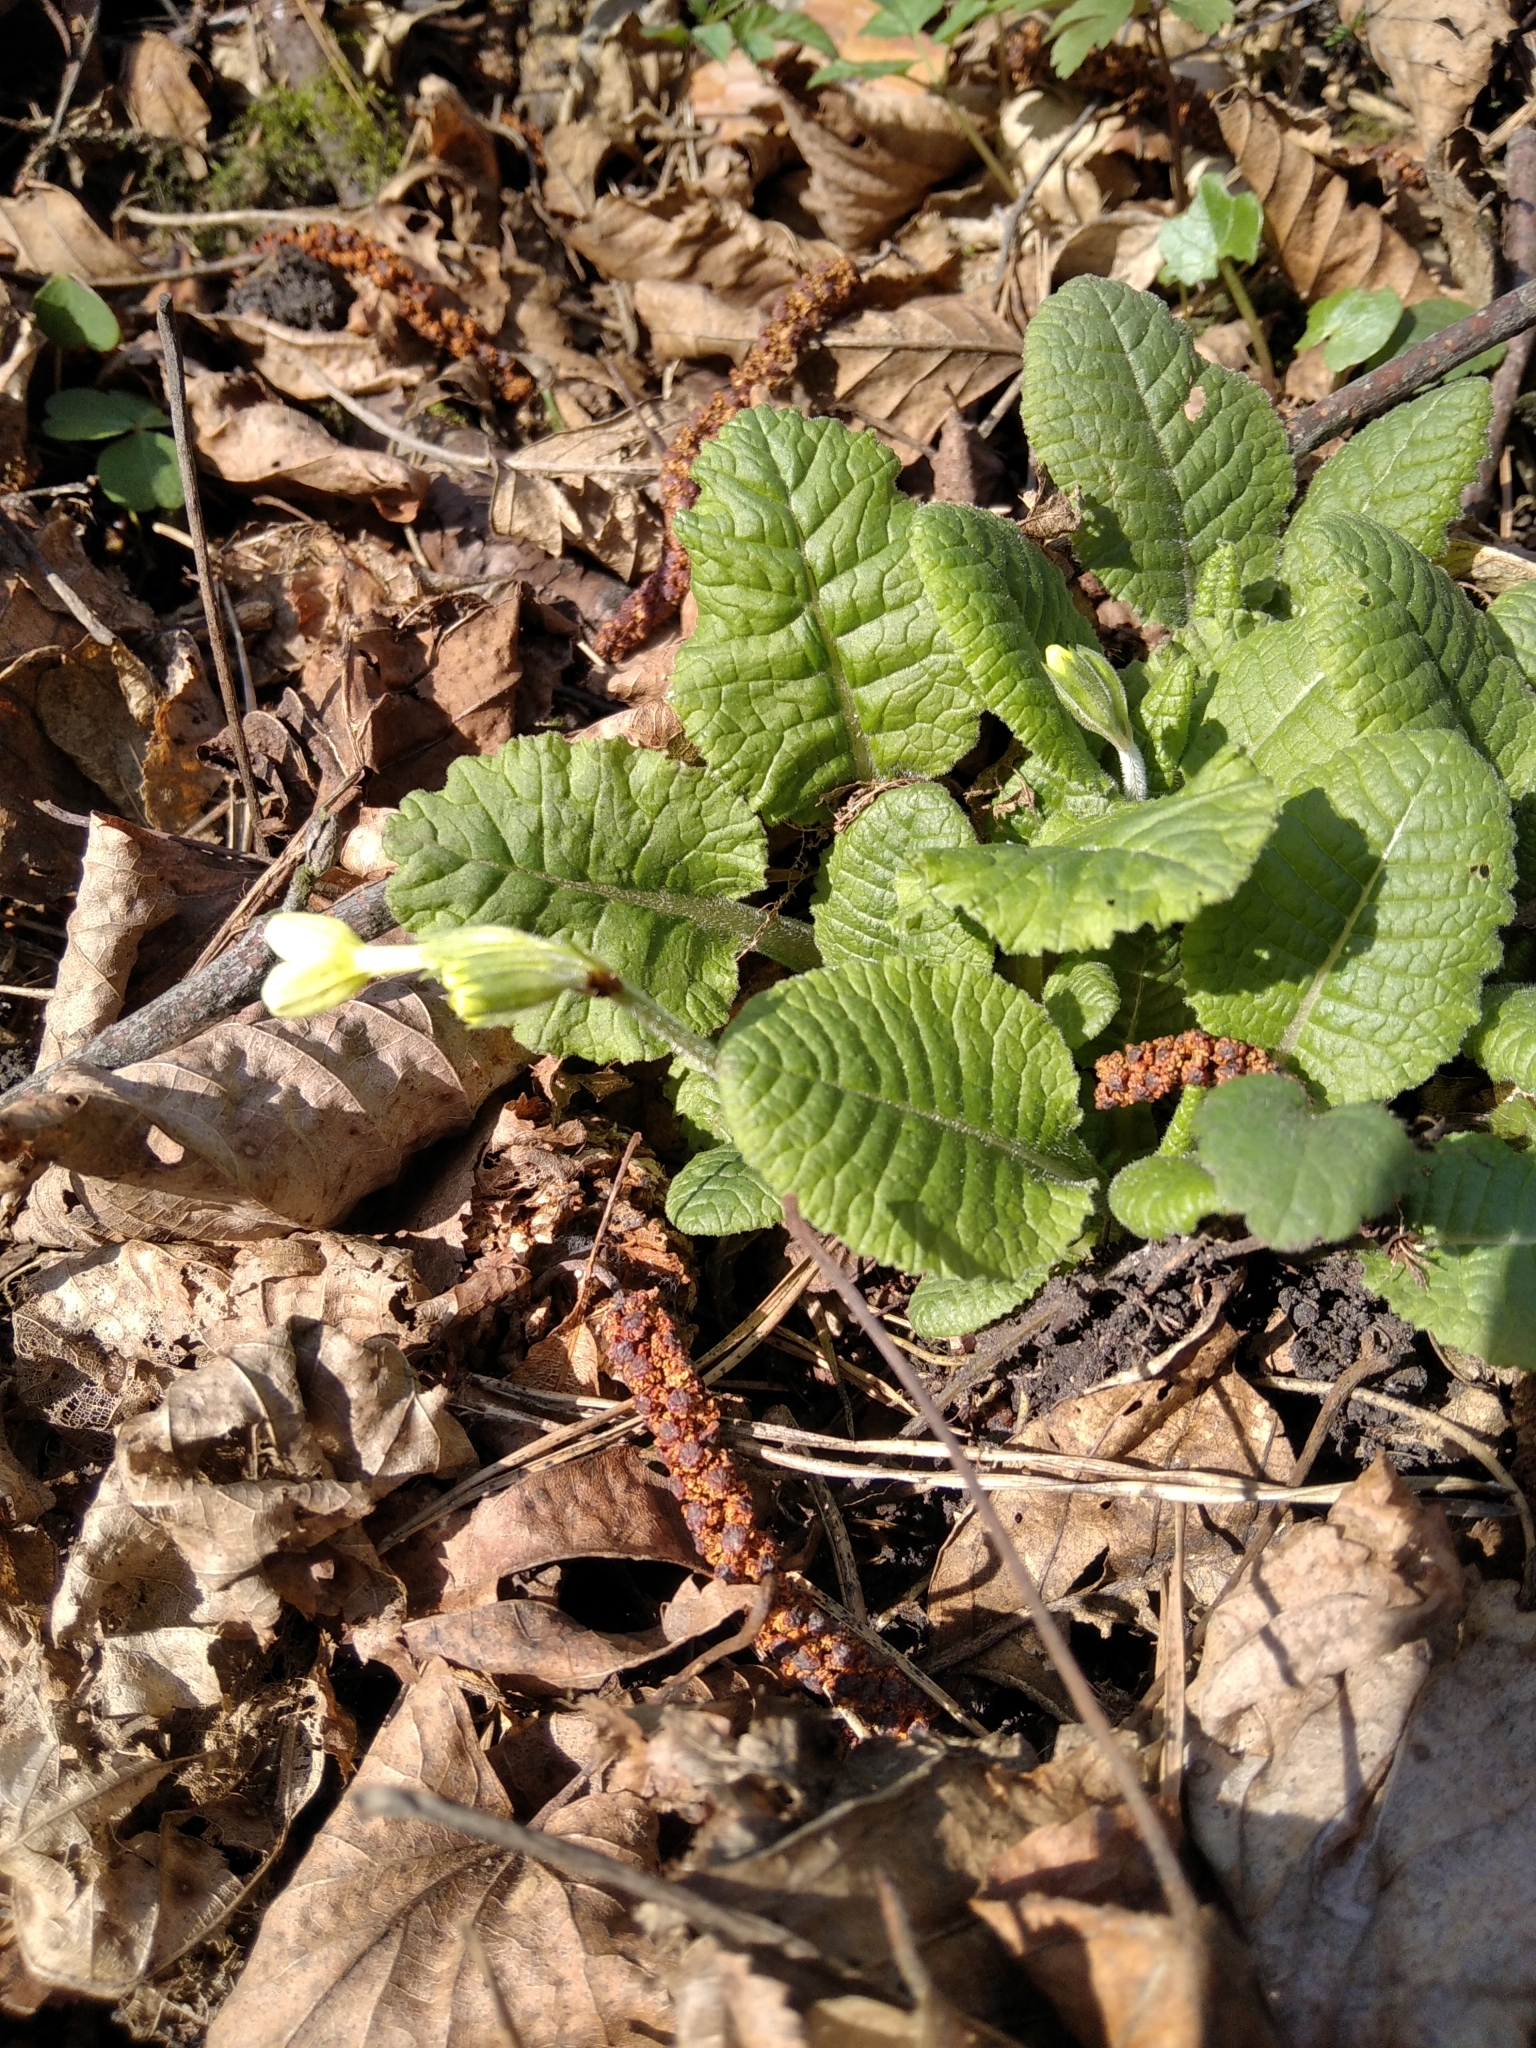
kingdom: Plantae
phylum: Tracheophyta
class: Magnoliopsida
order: Ericales
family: Primulaceae
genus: Primula
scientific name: Primula elatior
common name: Oxlip
